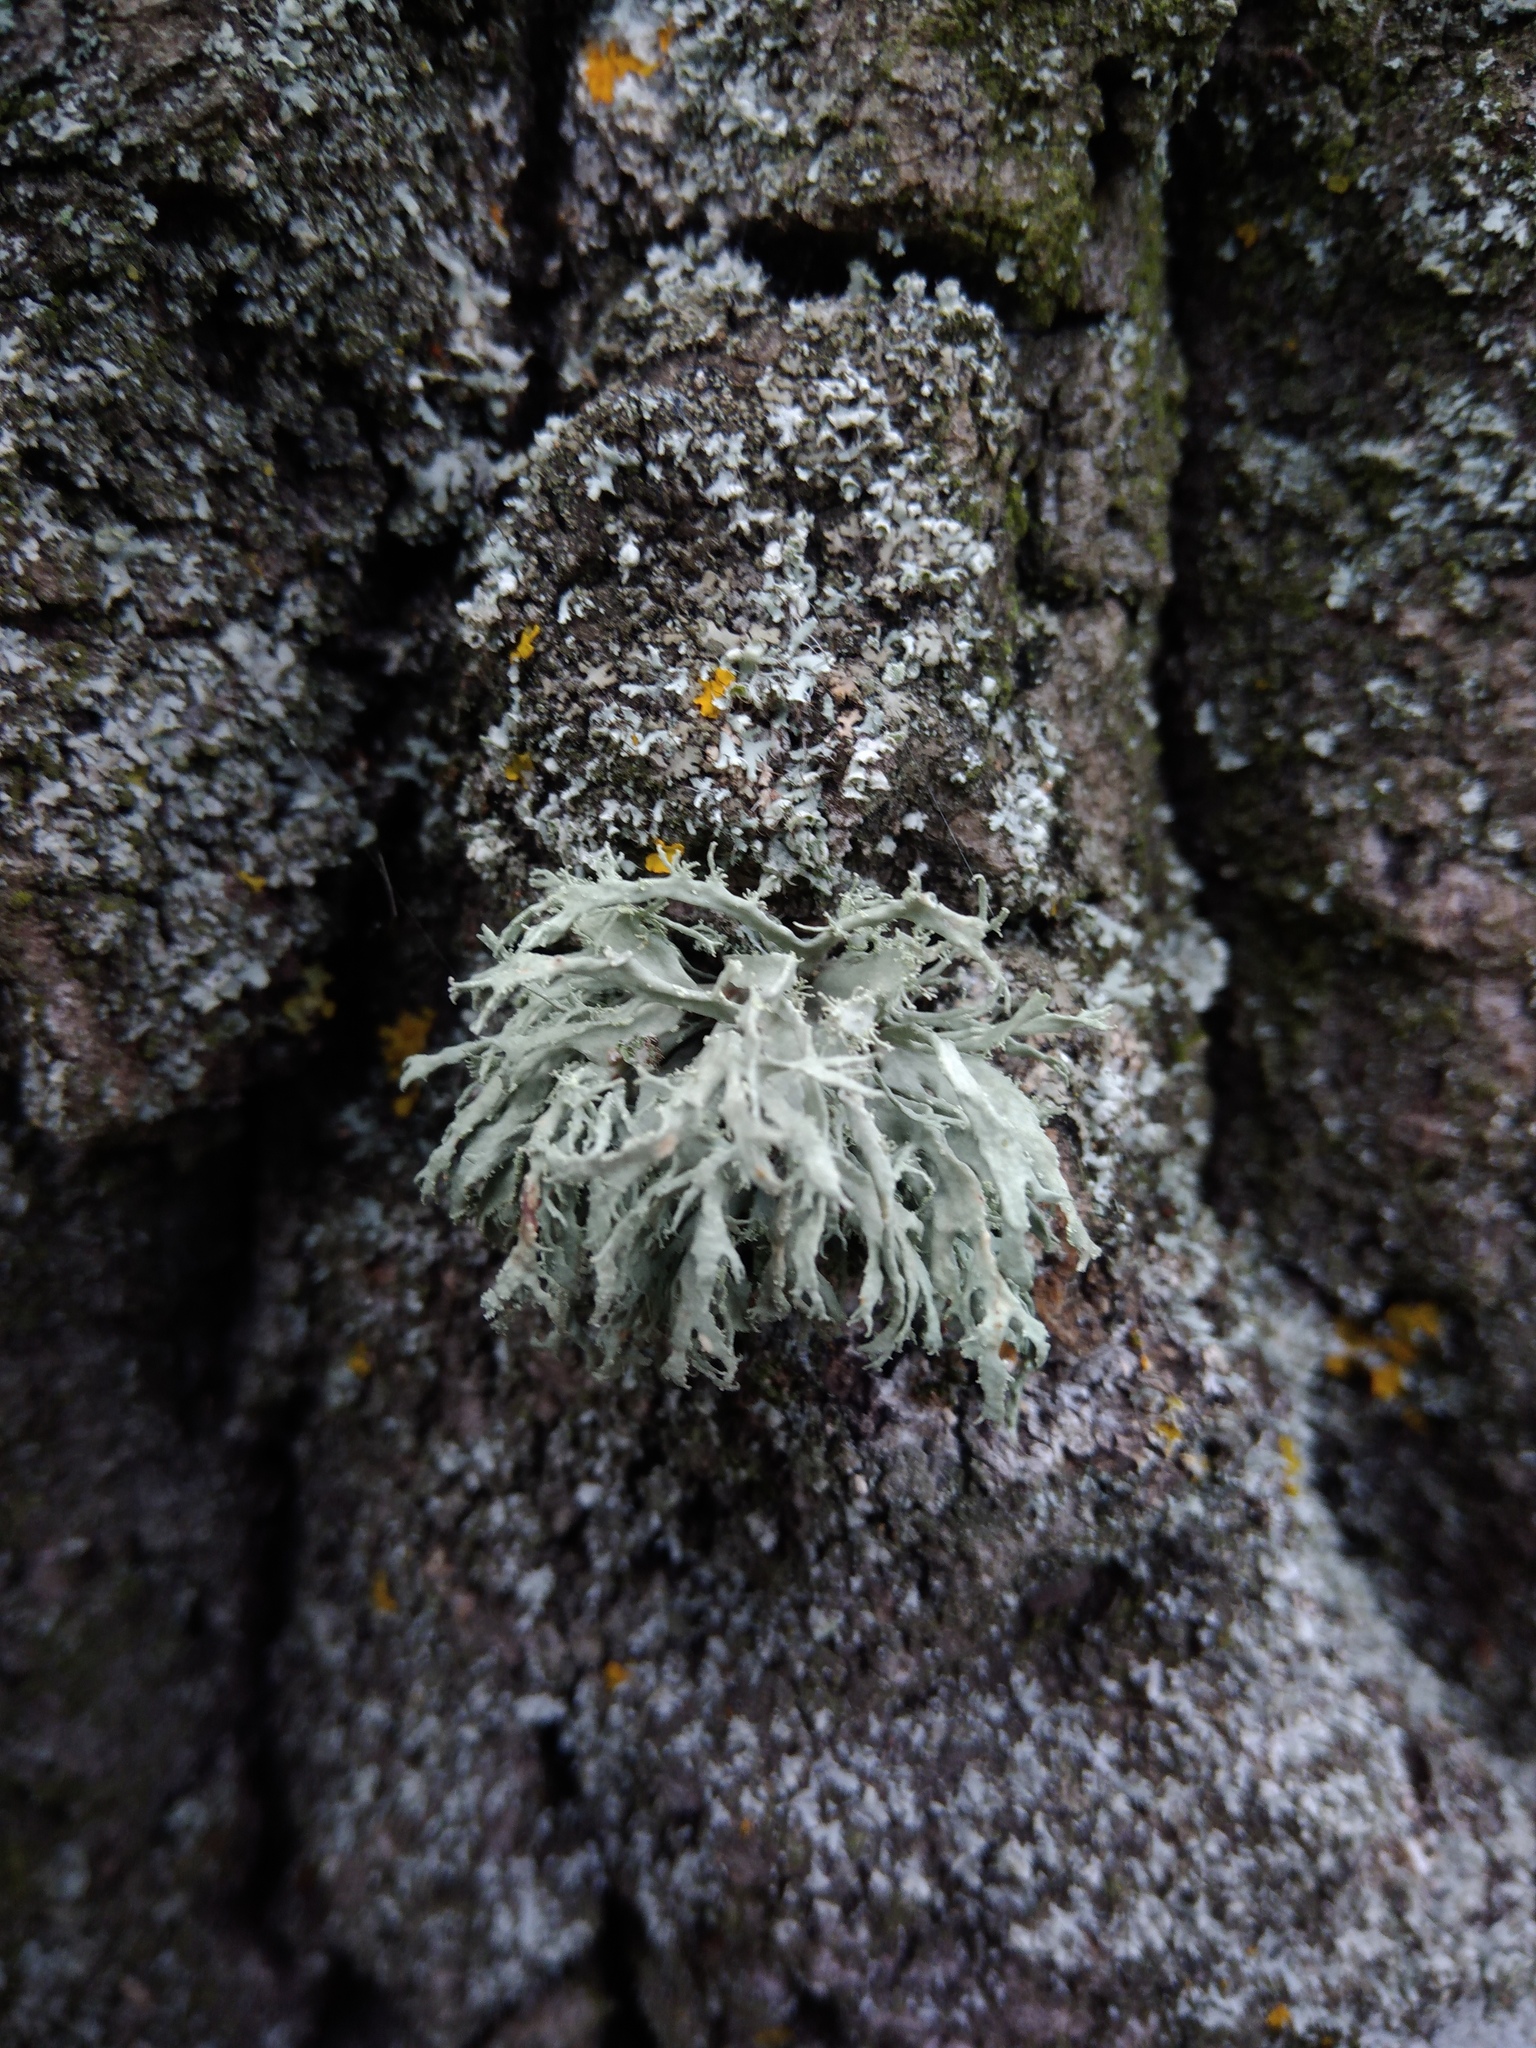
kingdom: Fungi
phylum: Ascomycota
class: Lecanoromycetes
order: Lecanorales
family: Ramalinaceae
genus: Ramalina
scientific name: Ramalina farinacea
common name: Farinose cartilage lichen
